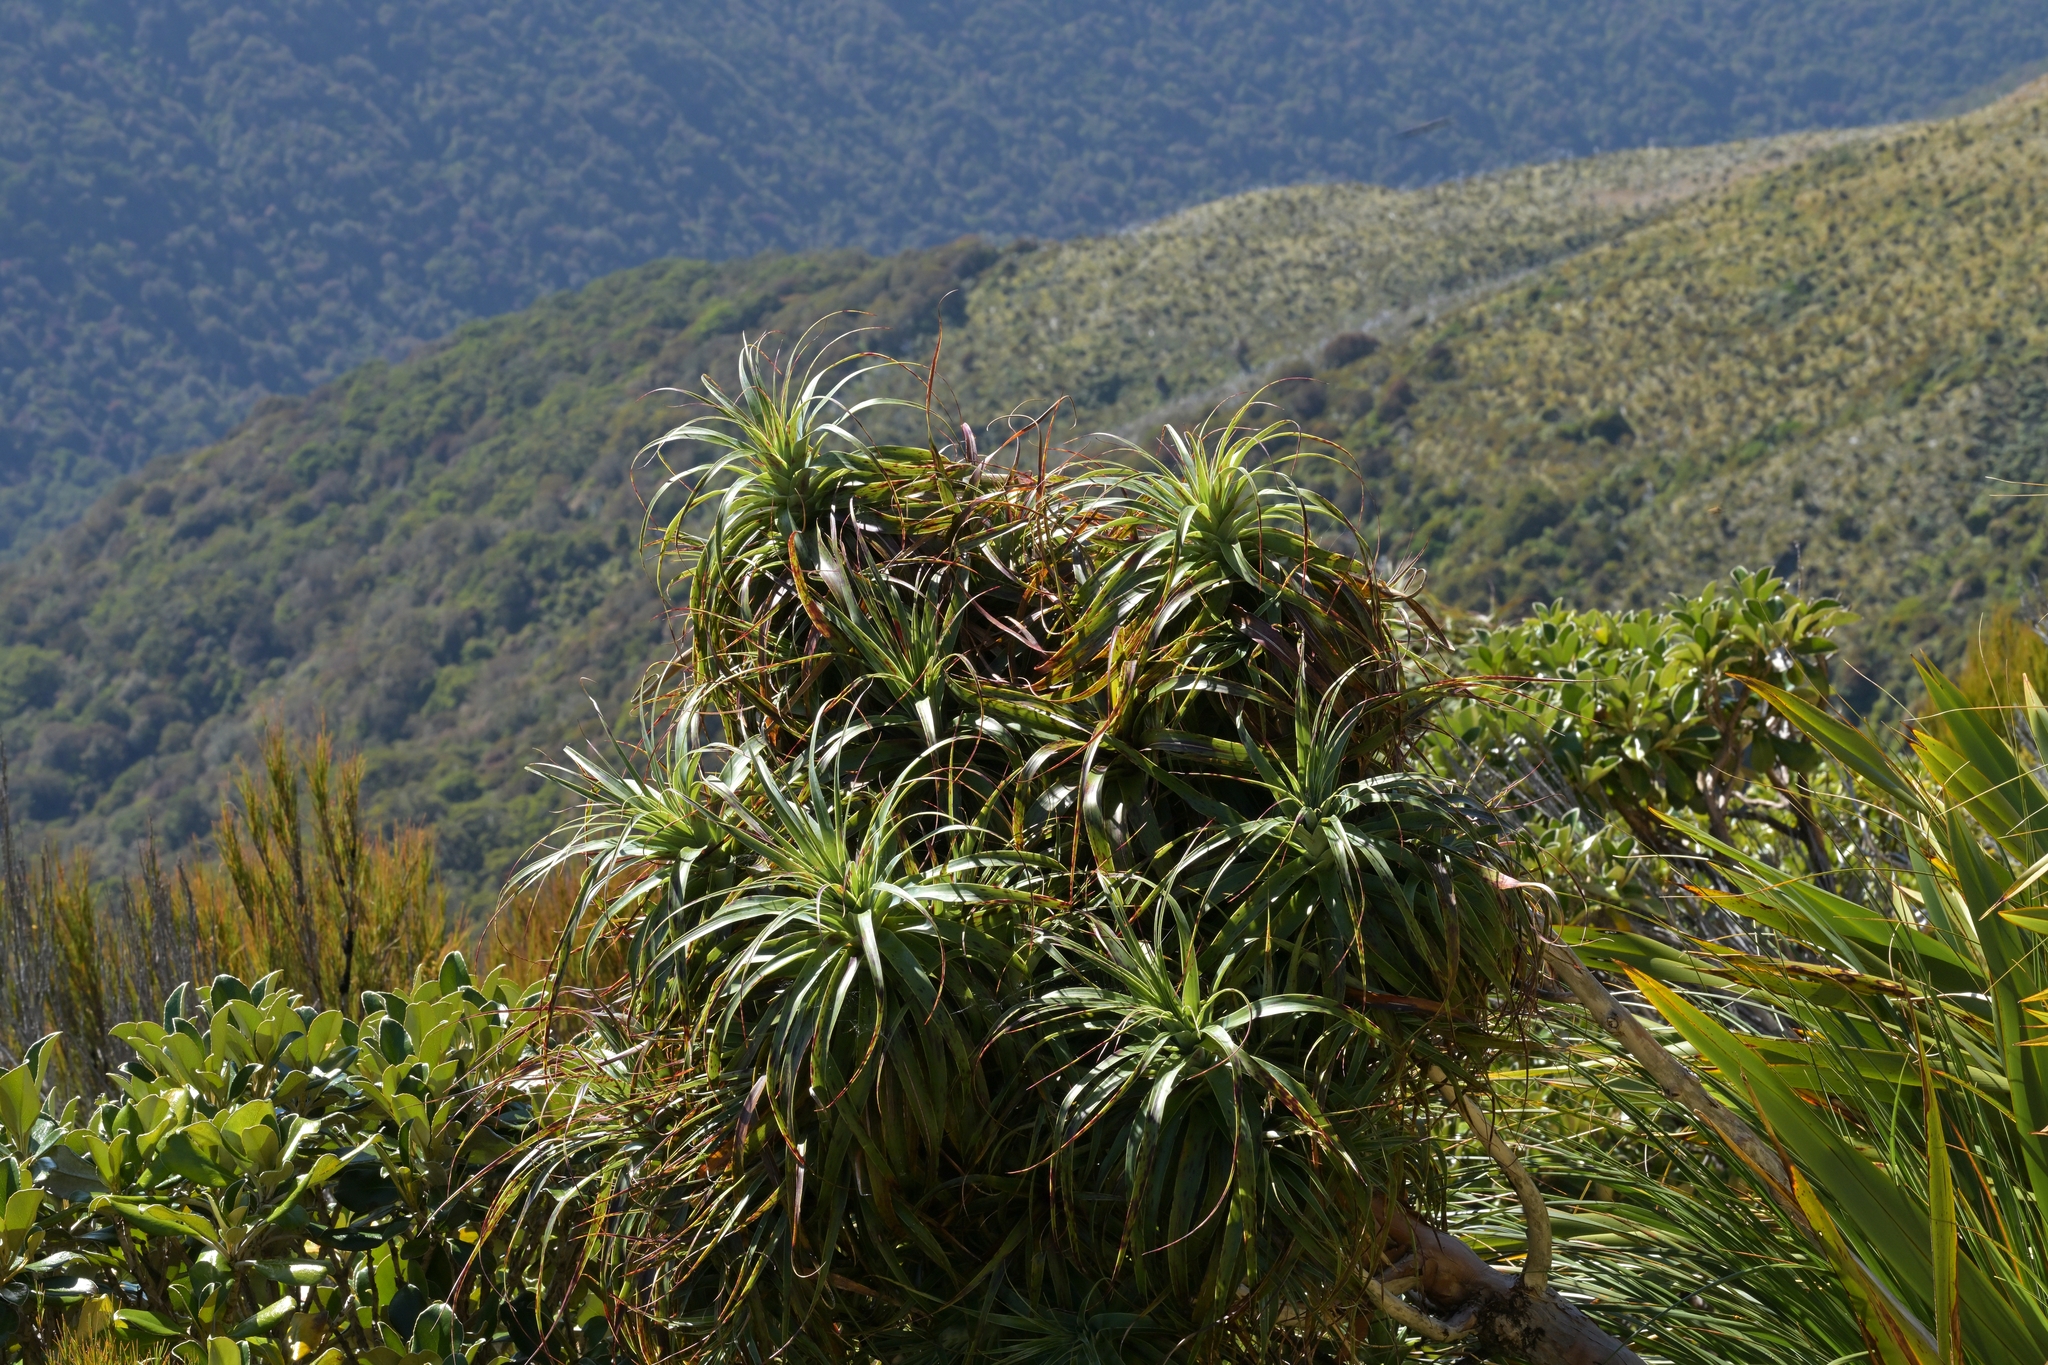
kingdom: Plantae
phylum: Tracheophyta
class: Magnoliopsida
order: Ericales
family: Ericaceae
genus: Dracophyllum
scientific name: Dracophyllum traversii
